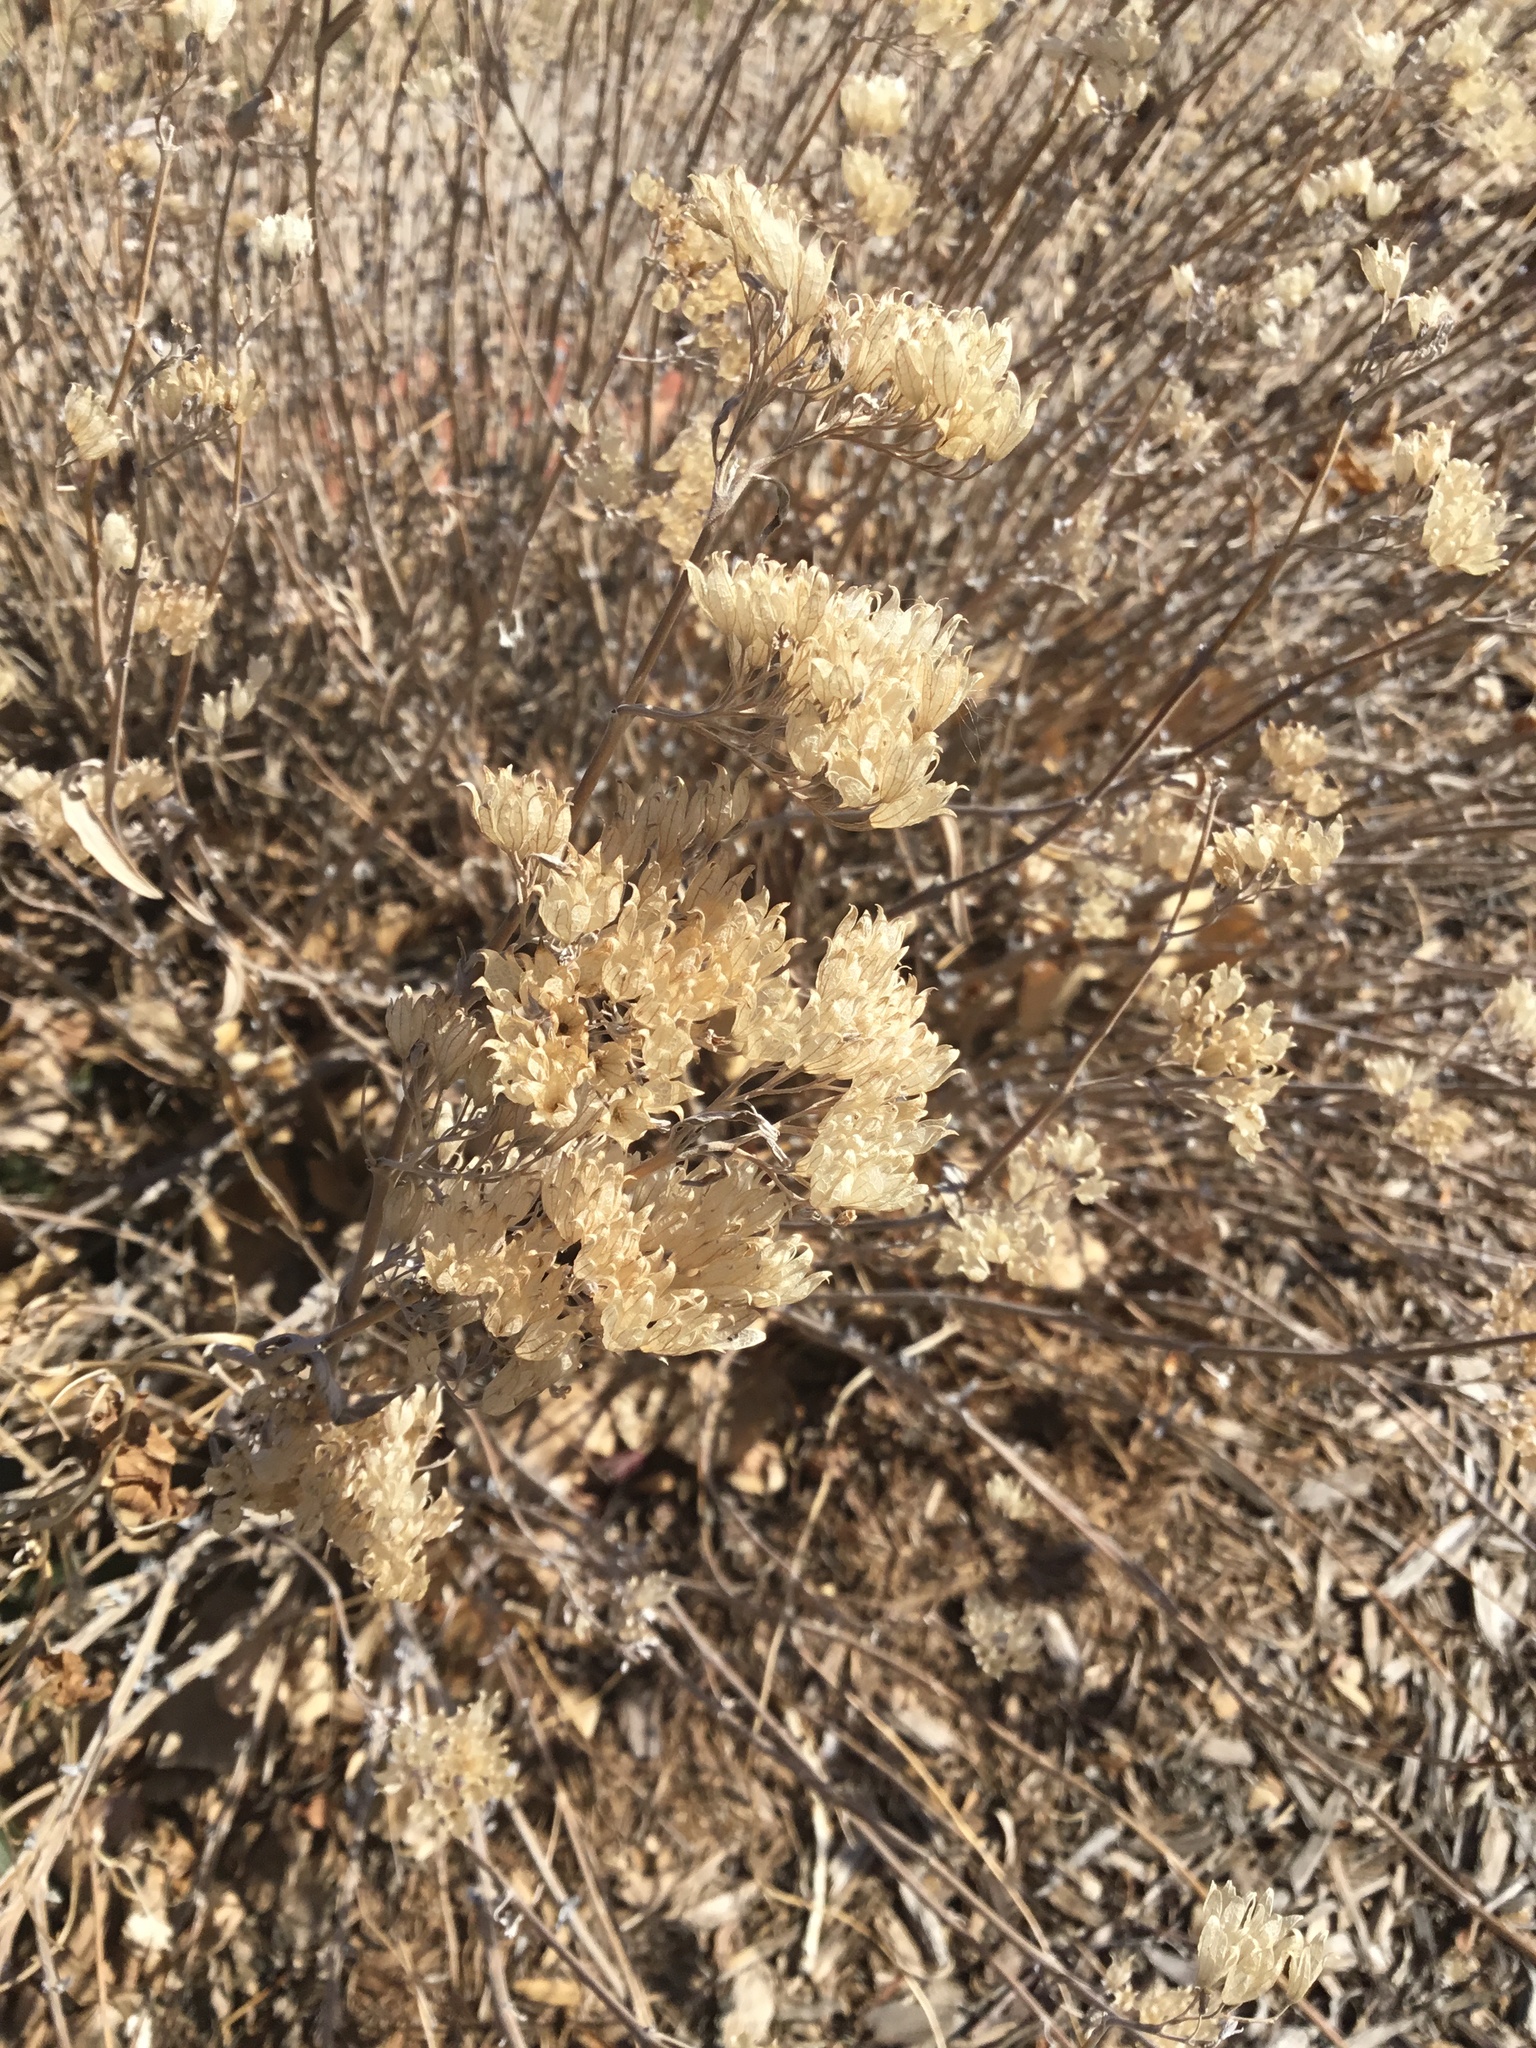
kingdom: Plantae
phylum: Tracheophyta
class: Magnoliopsida
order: Asterales
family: Asteraceae
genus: Ericameria
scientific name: Ericameria nauseosa
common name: Rubber rabbitbrush
